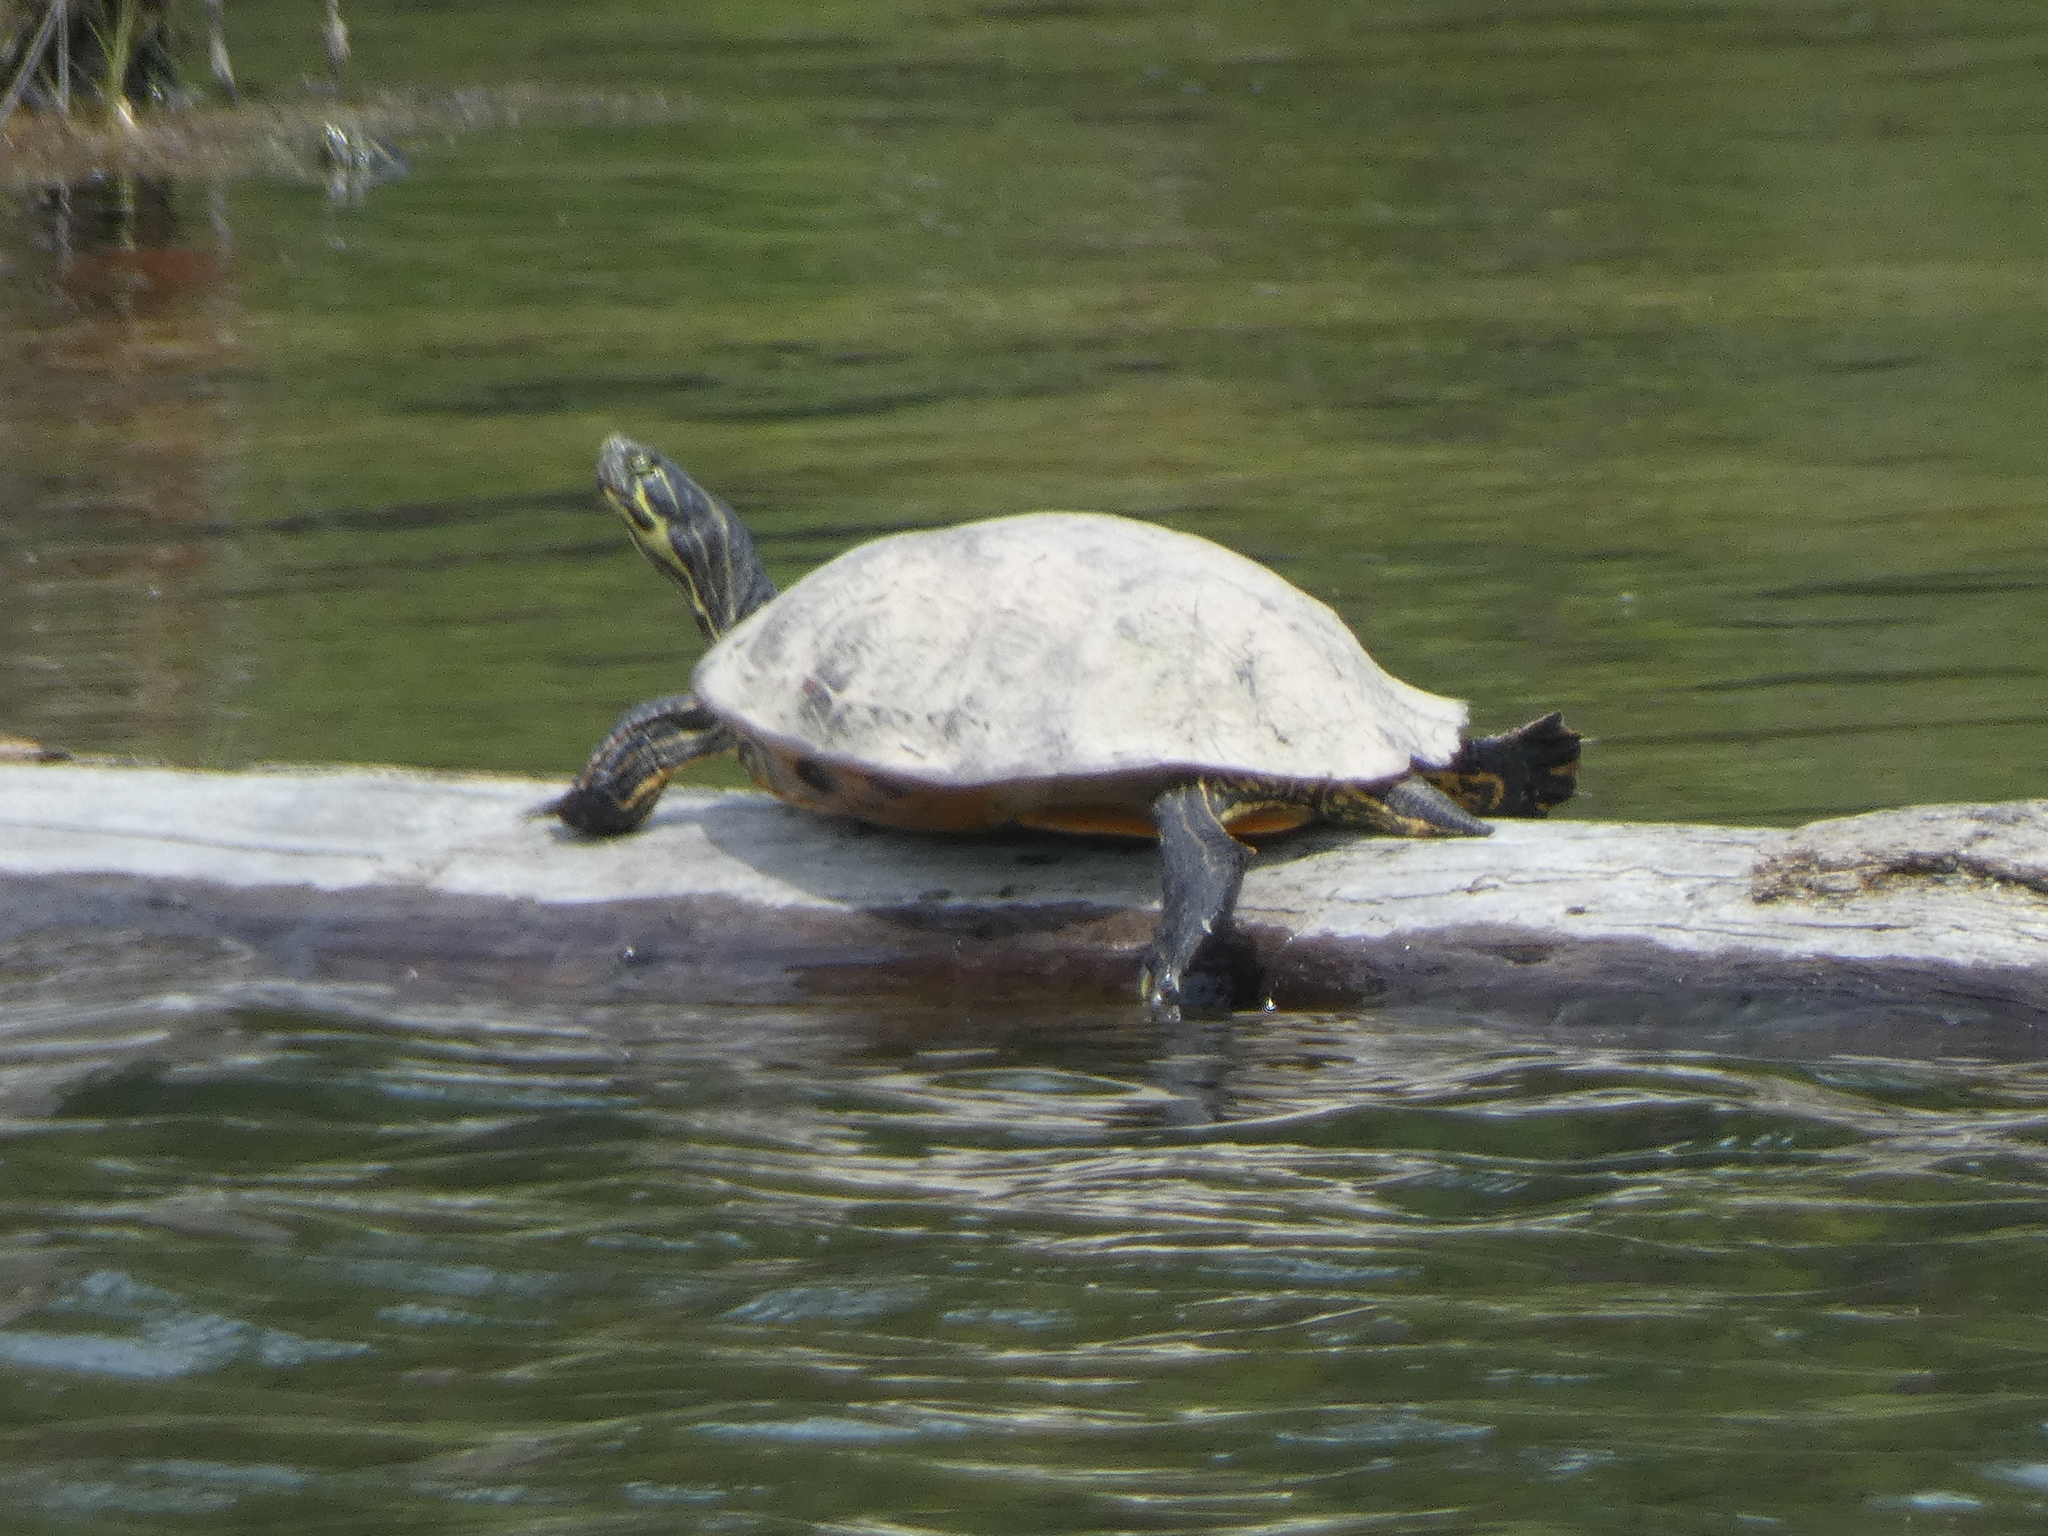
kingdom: Animalia
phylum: Chordata
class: Testudines
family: Emydidae
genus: Pseudemys
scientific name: Pseudemys concinna
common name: Eastern river cooter
